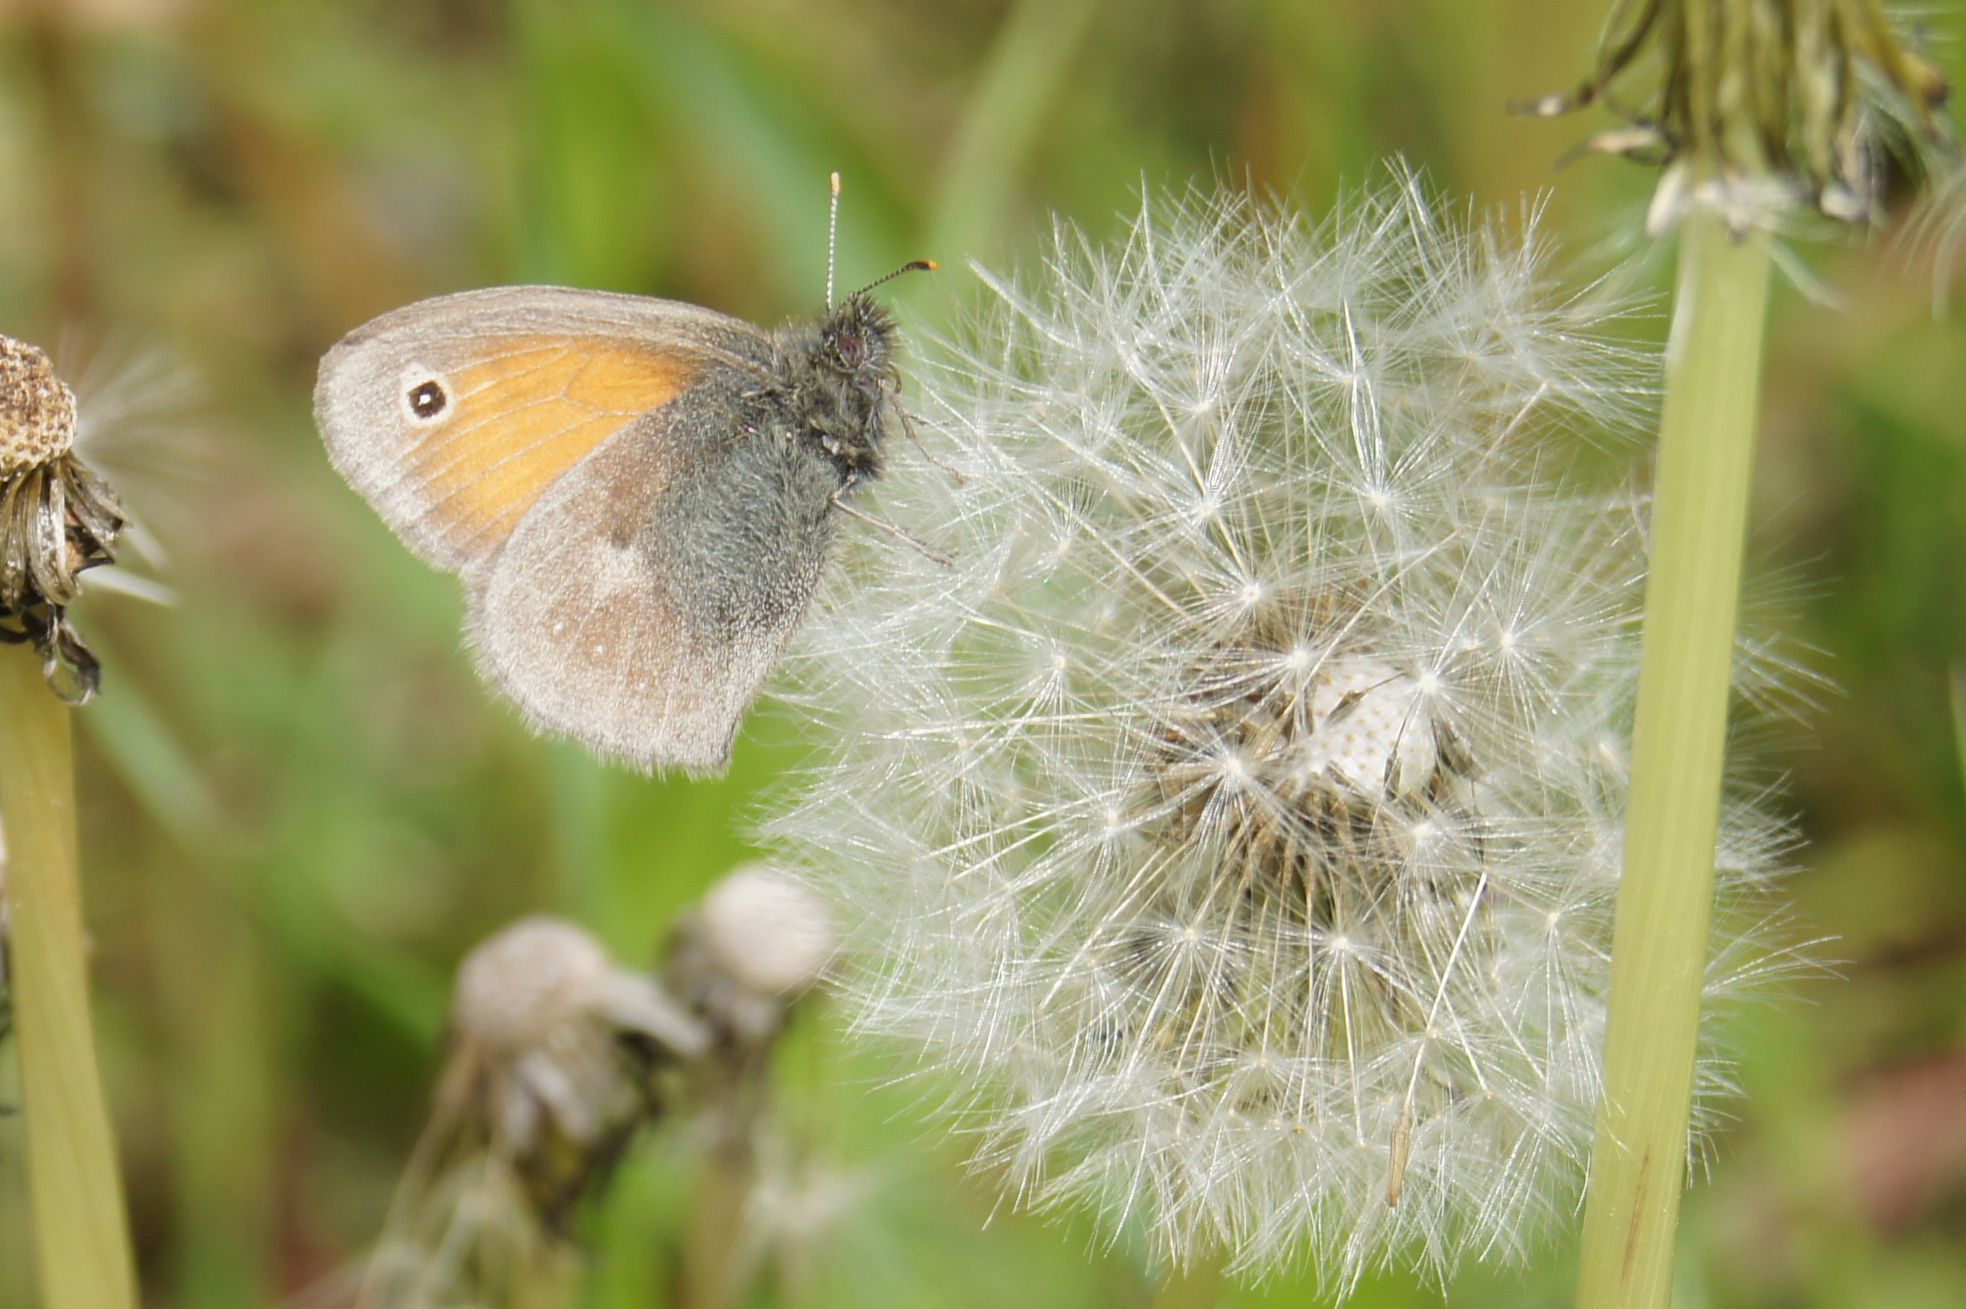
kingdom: Animalia
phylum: Arthropoda
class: Insecta
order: Lepidoptera
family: Nymphalidae
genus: Coenonympha
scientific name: Coenonympha pamphilus
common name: Small heath
